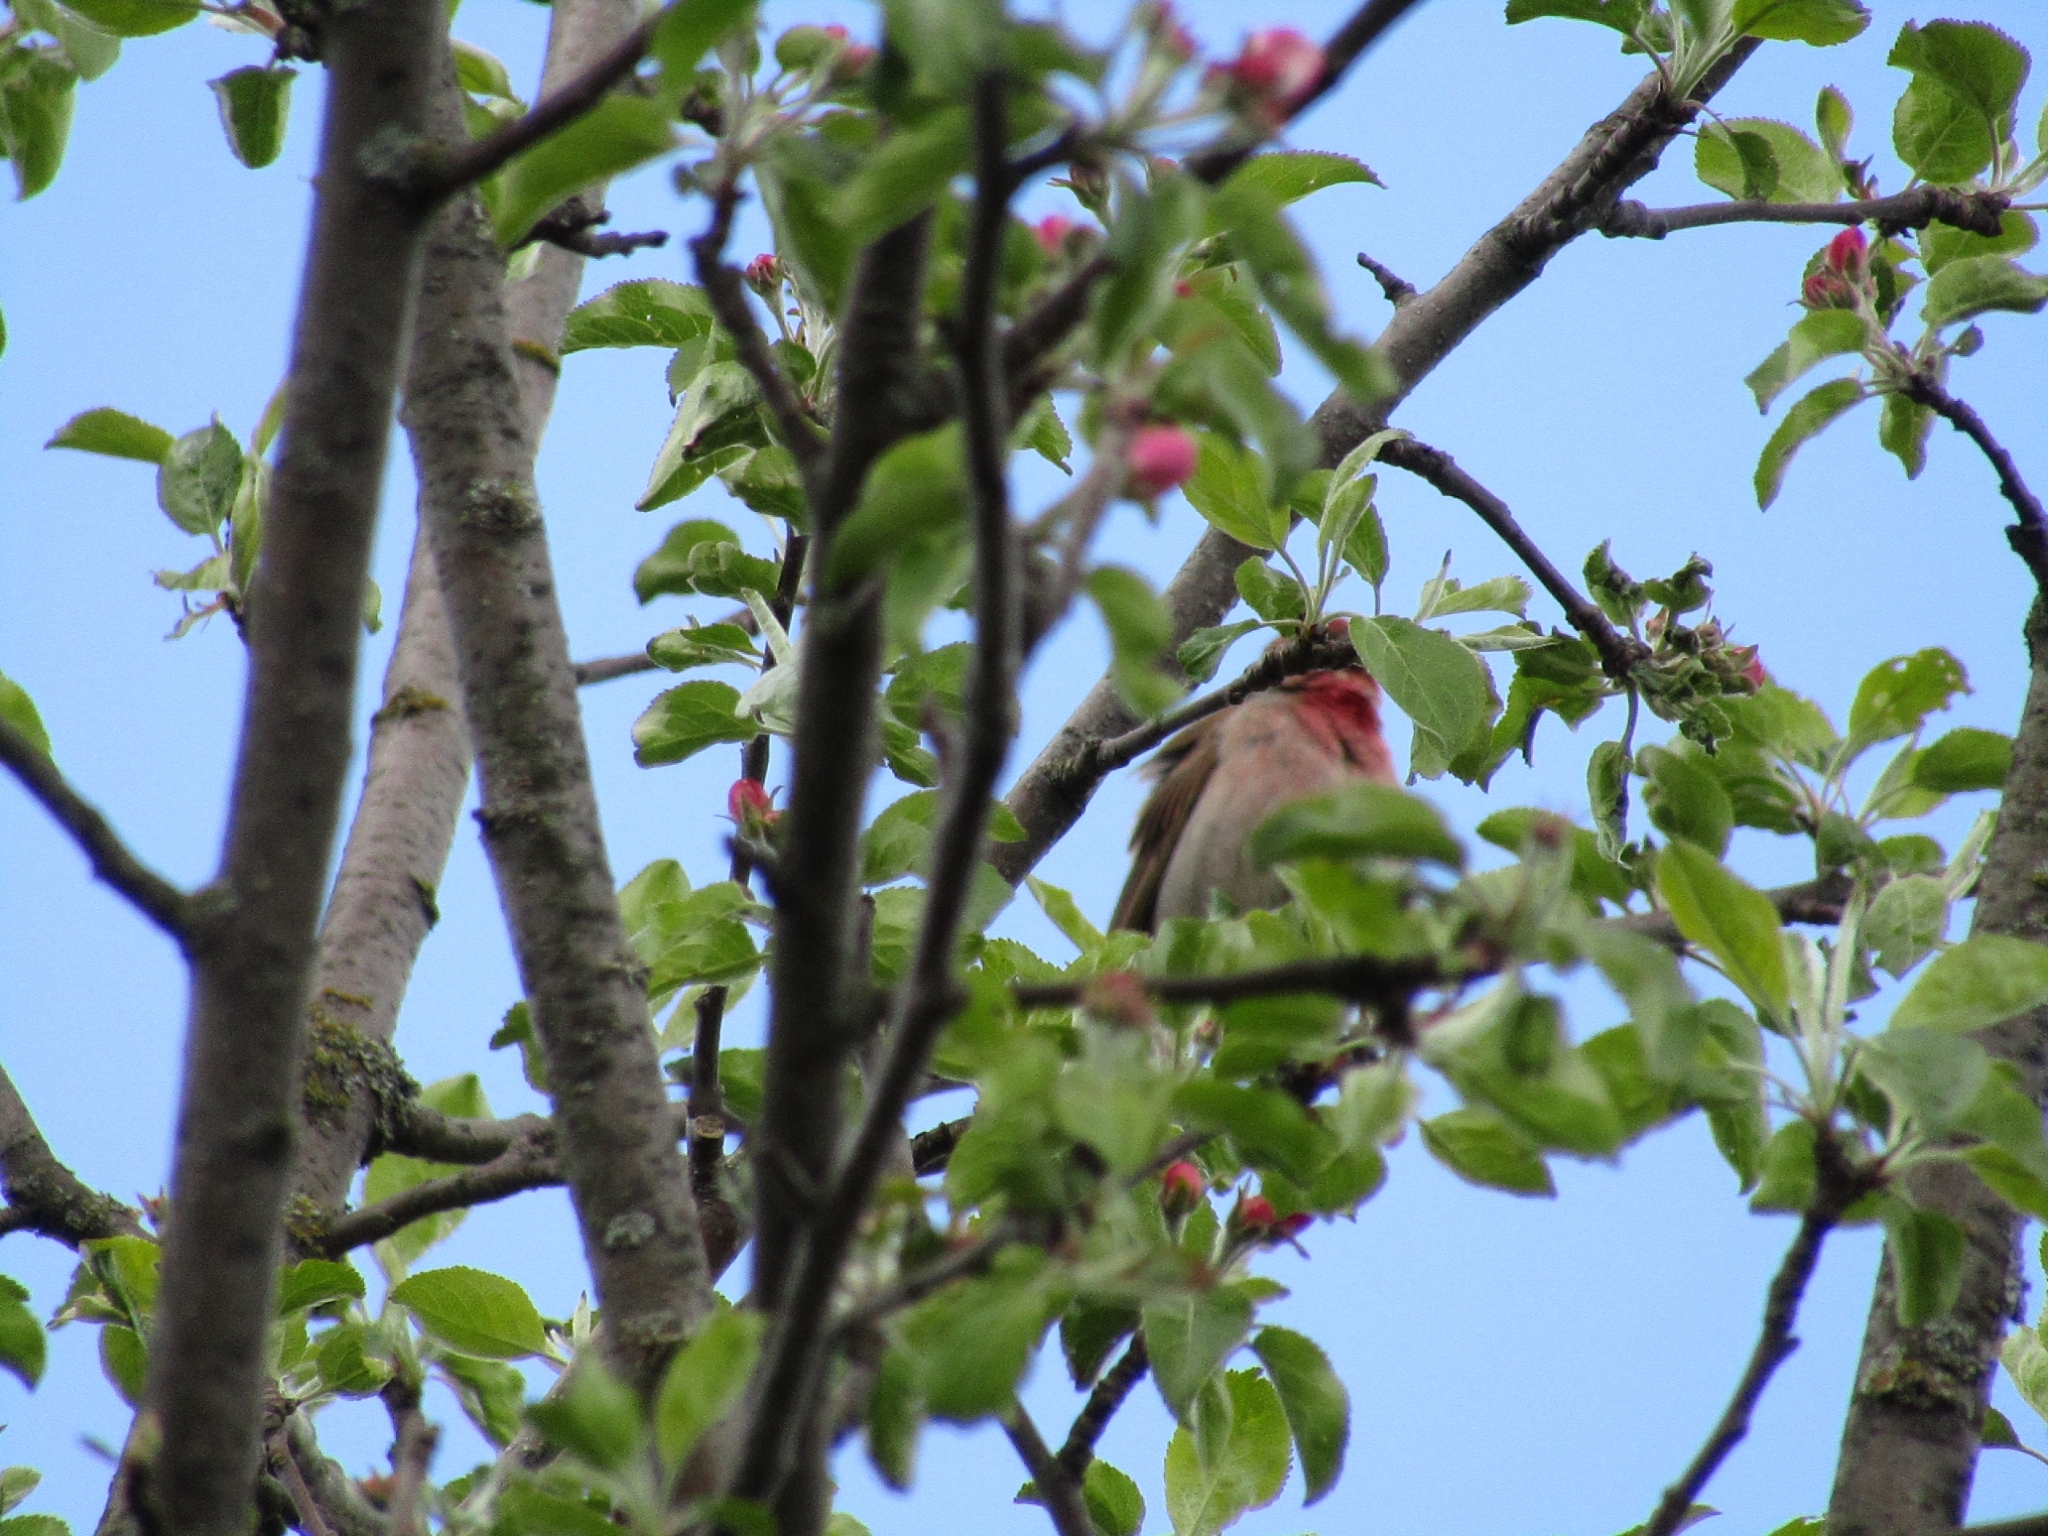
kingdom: Animalia
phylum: Chordata
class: Aves
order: Passeriformes
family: Fringillidae
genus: Carpodacus
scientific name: Carpodacus erythrinus
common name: Common rosefinch
